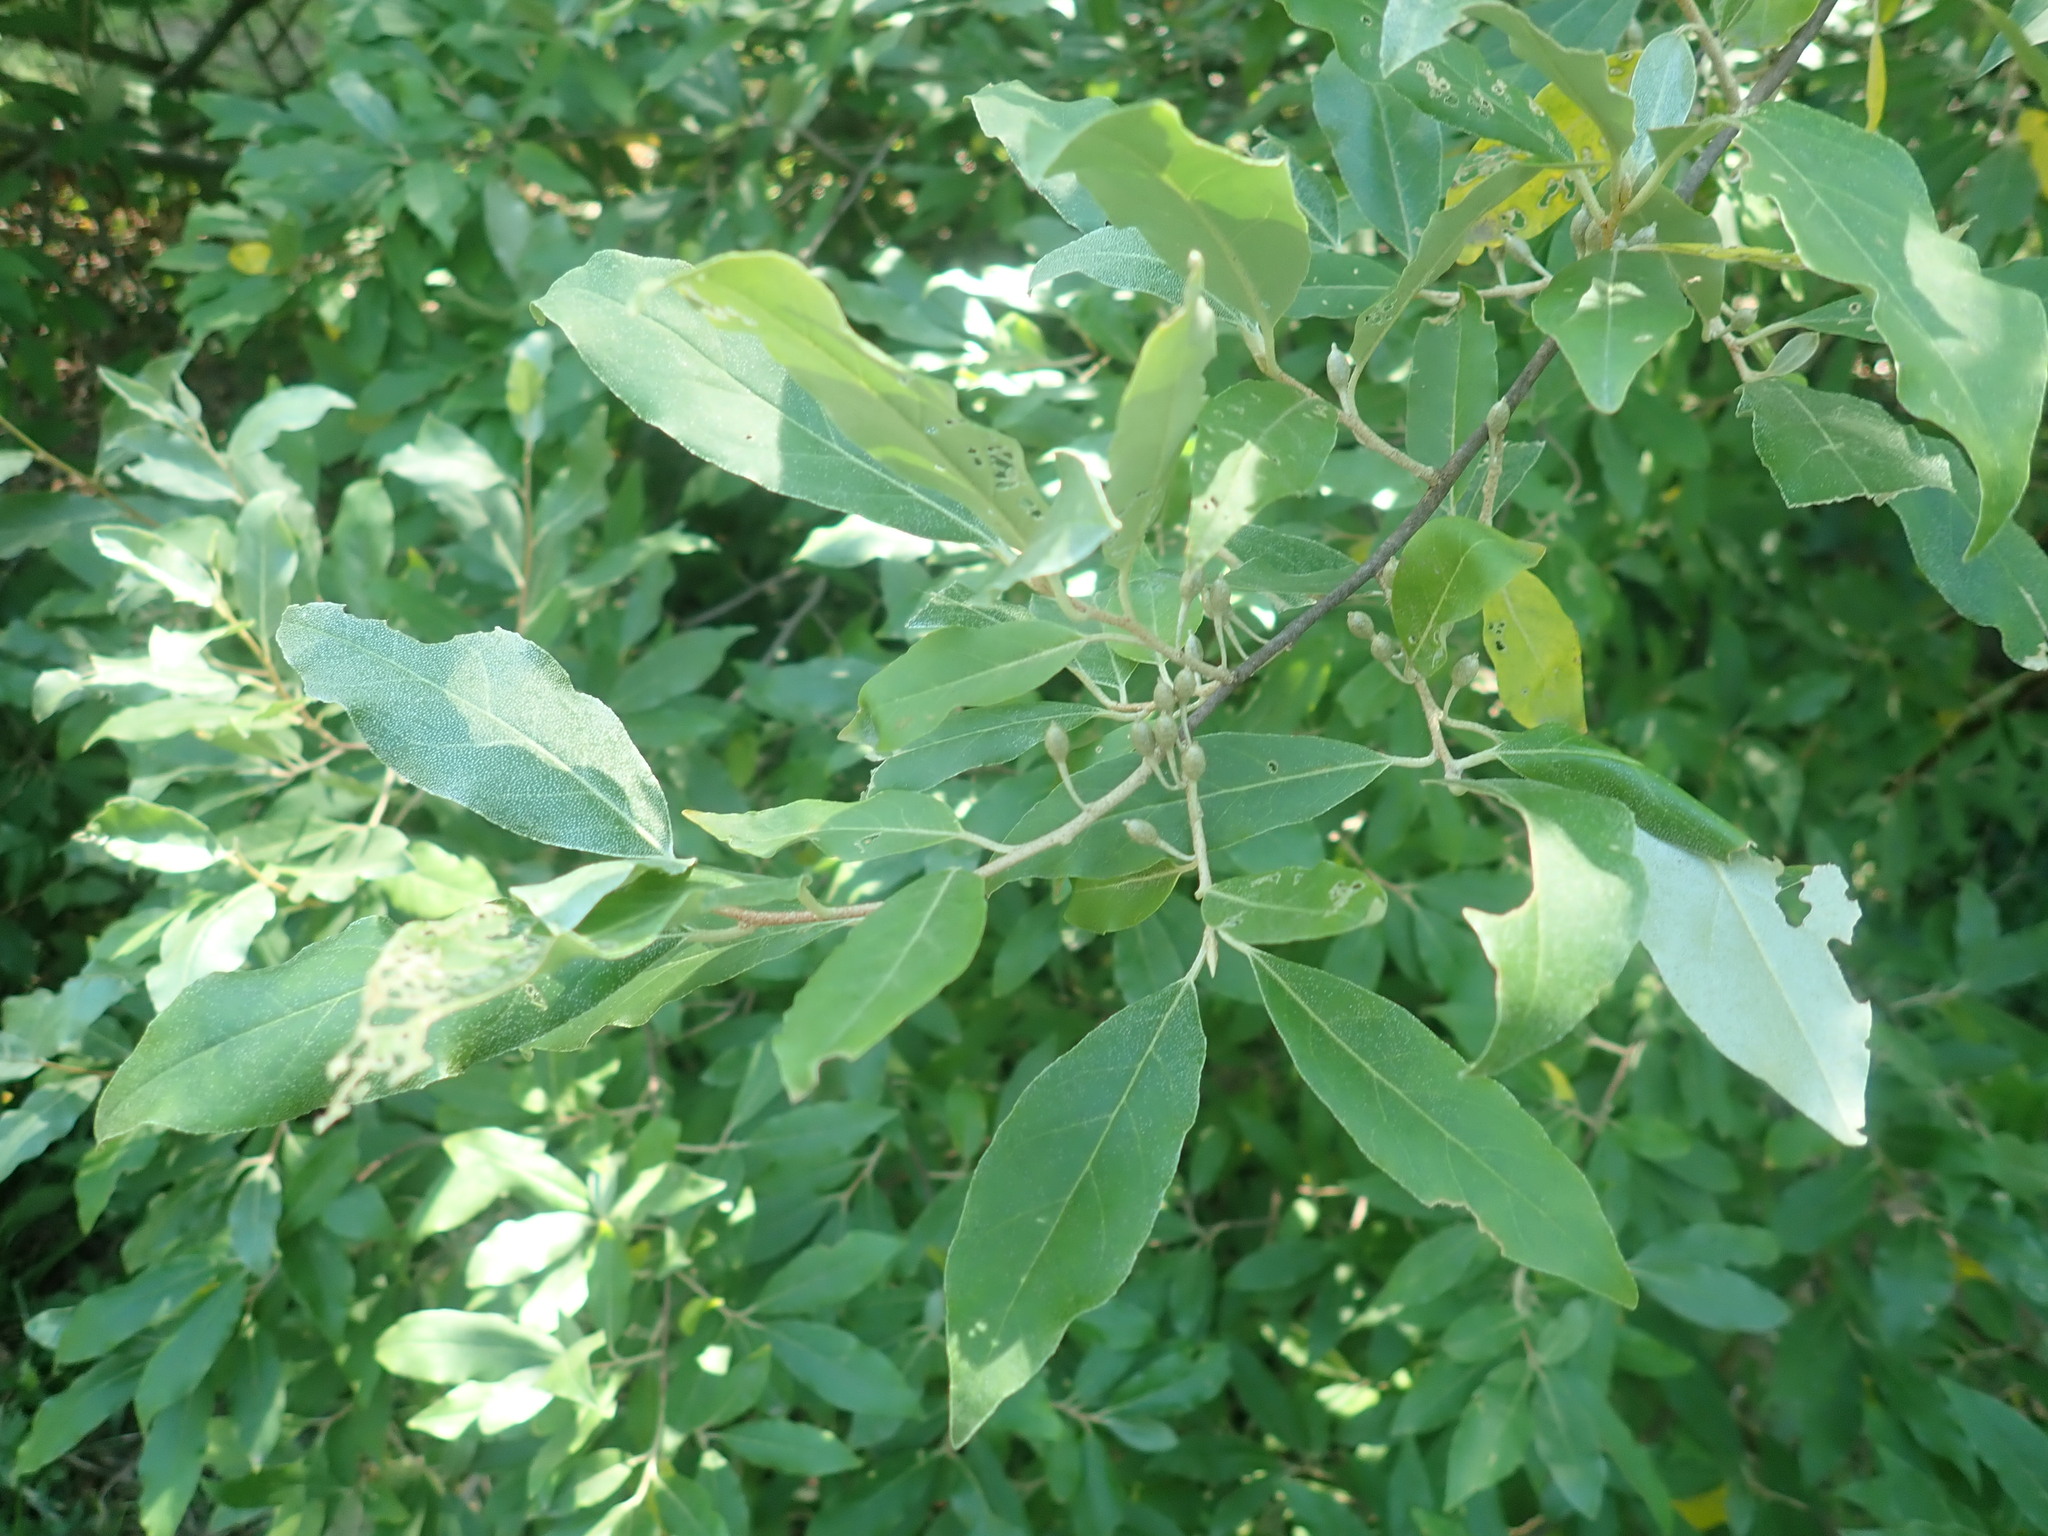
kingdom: Plantae
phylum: Tracheophyta
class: Magnoliopsida
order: Rosales
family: Elaeagnaceae
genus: Elaeagnus
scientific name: Elaeagnus umbellata
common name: Autumn olive
